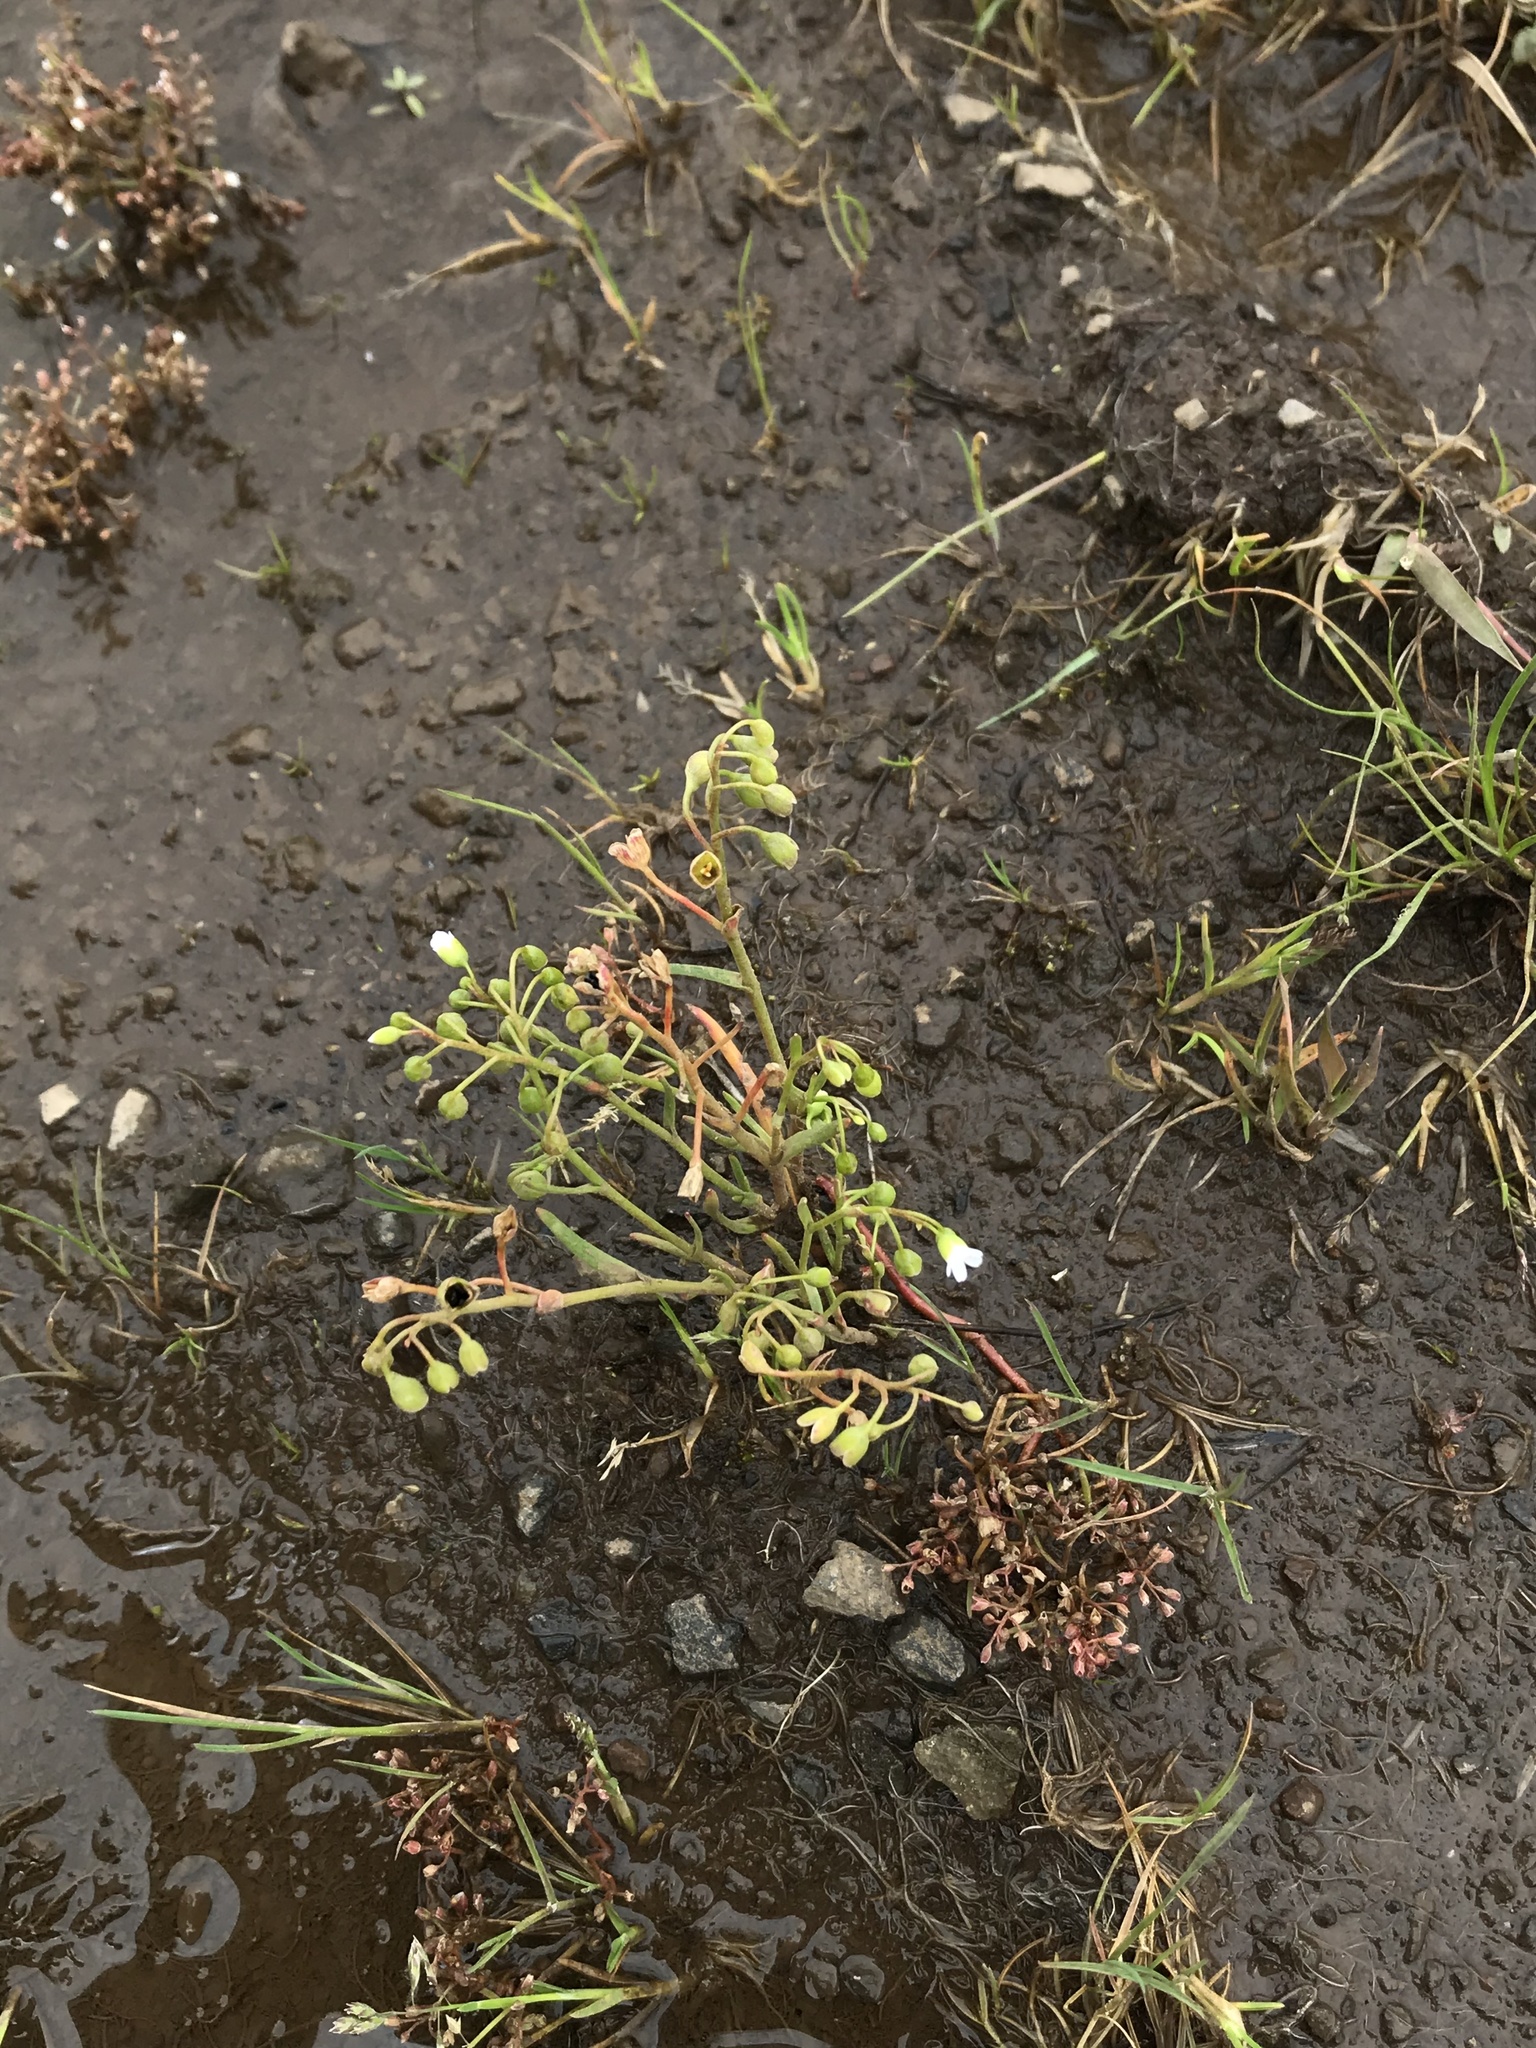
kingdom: Plantae
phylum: Tracheophyta
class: Magnoliopsida
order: Caryophyllales
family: Montiaceae
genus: Montia
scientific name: Montia linearis
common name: Narrow-leaf montia
